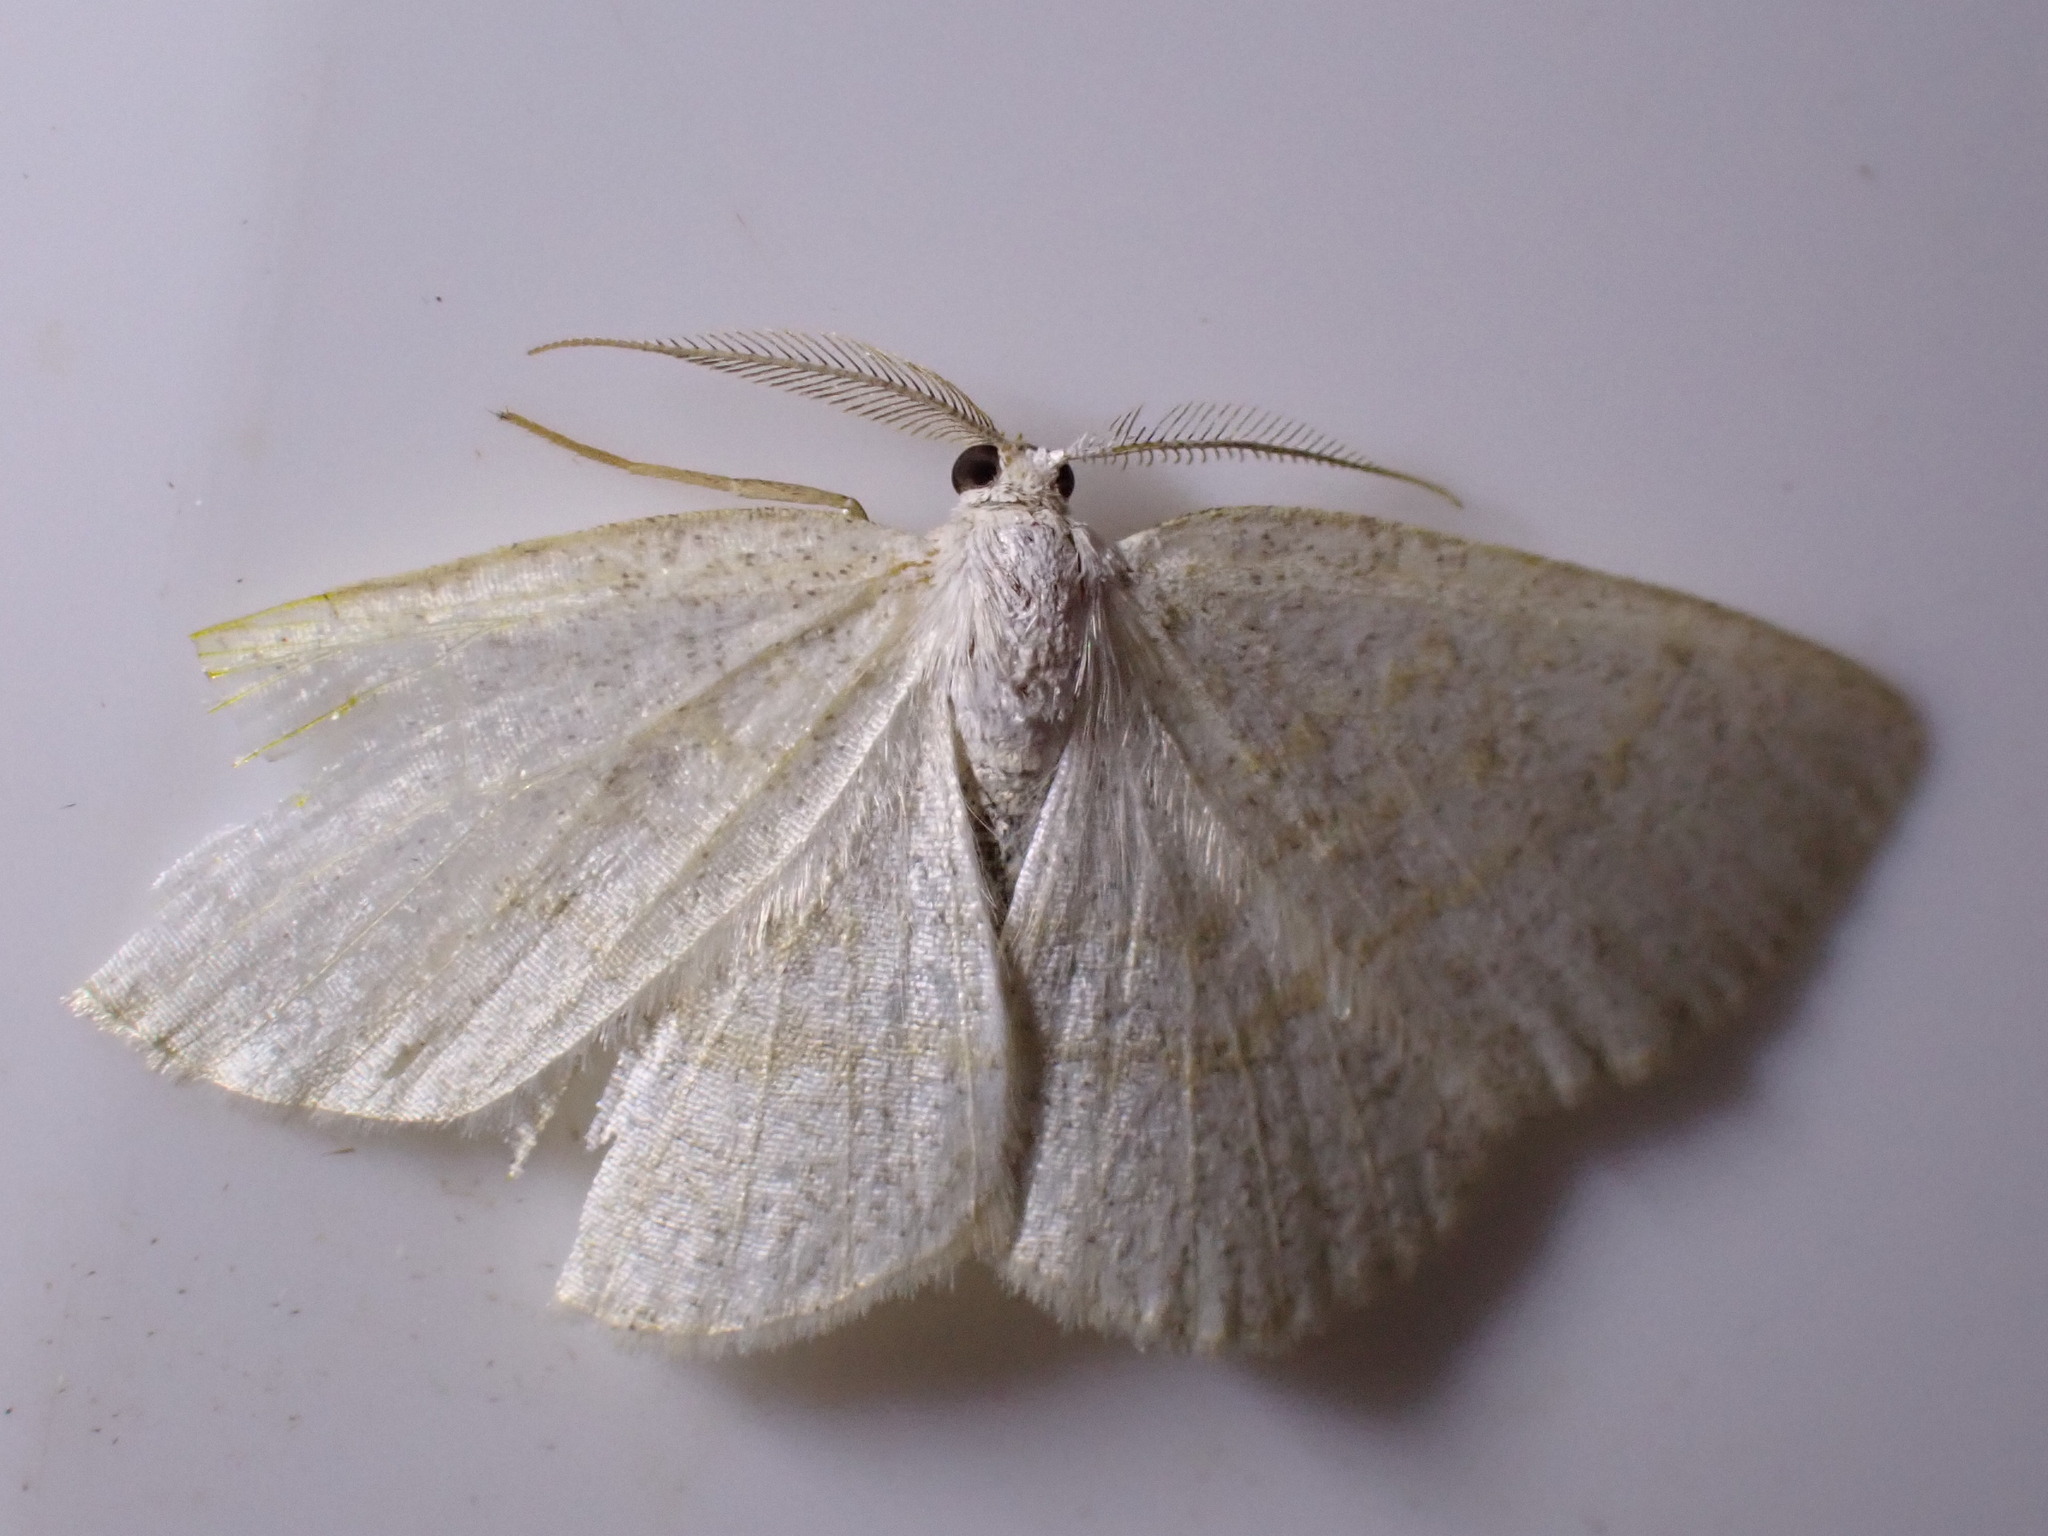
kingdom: Animalia
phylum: Arthropoda
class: Insecta
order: Lepidoptera
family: Geometridae
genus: Cabera
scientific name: Cabera exanthemata
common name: Common wave
